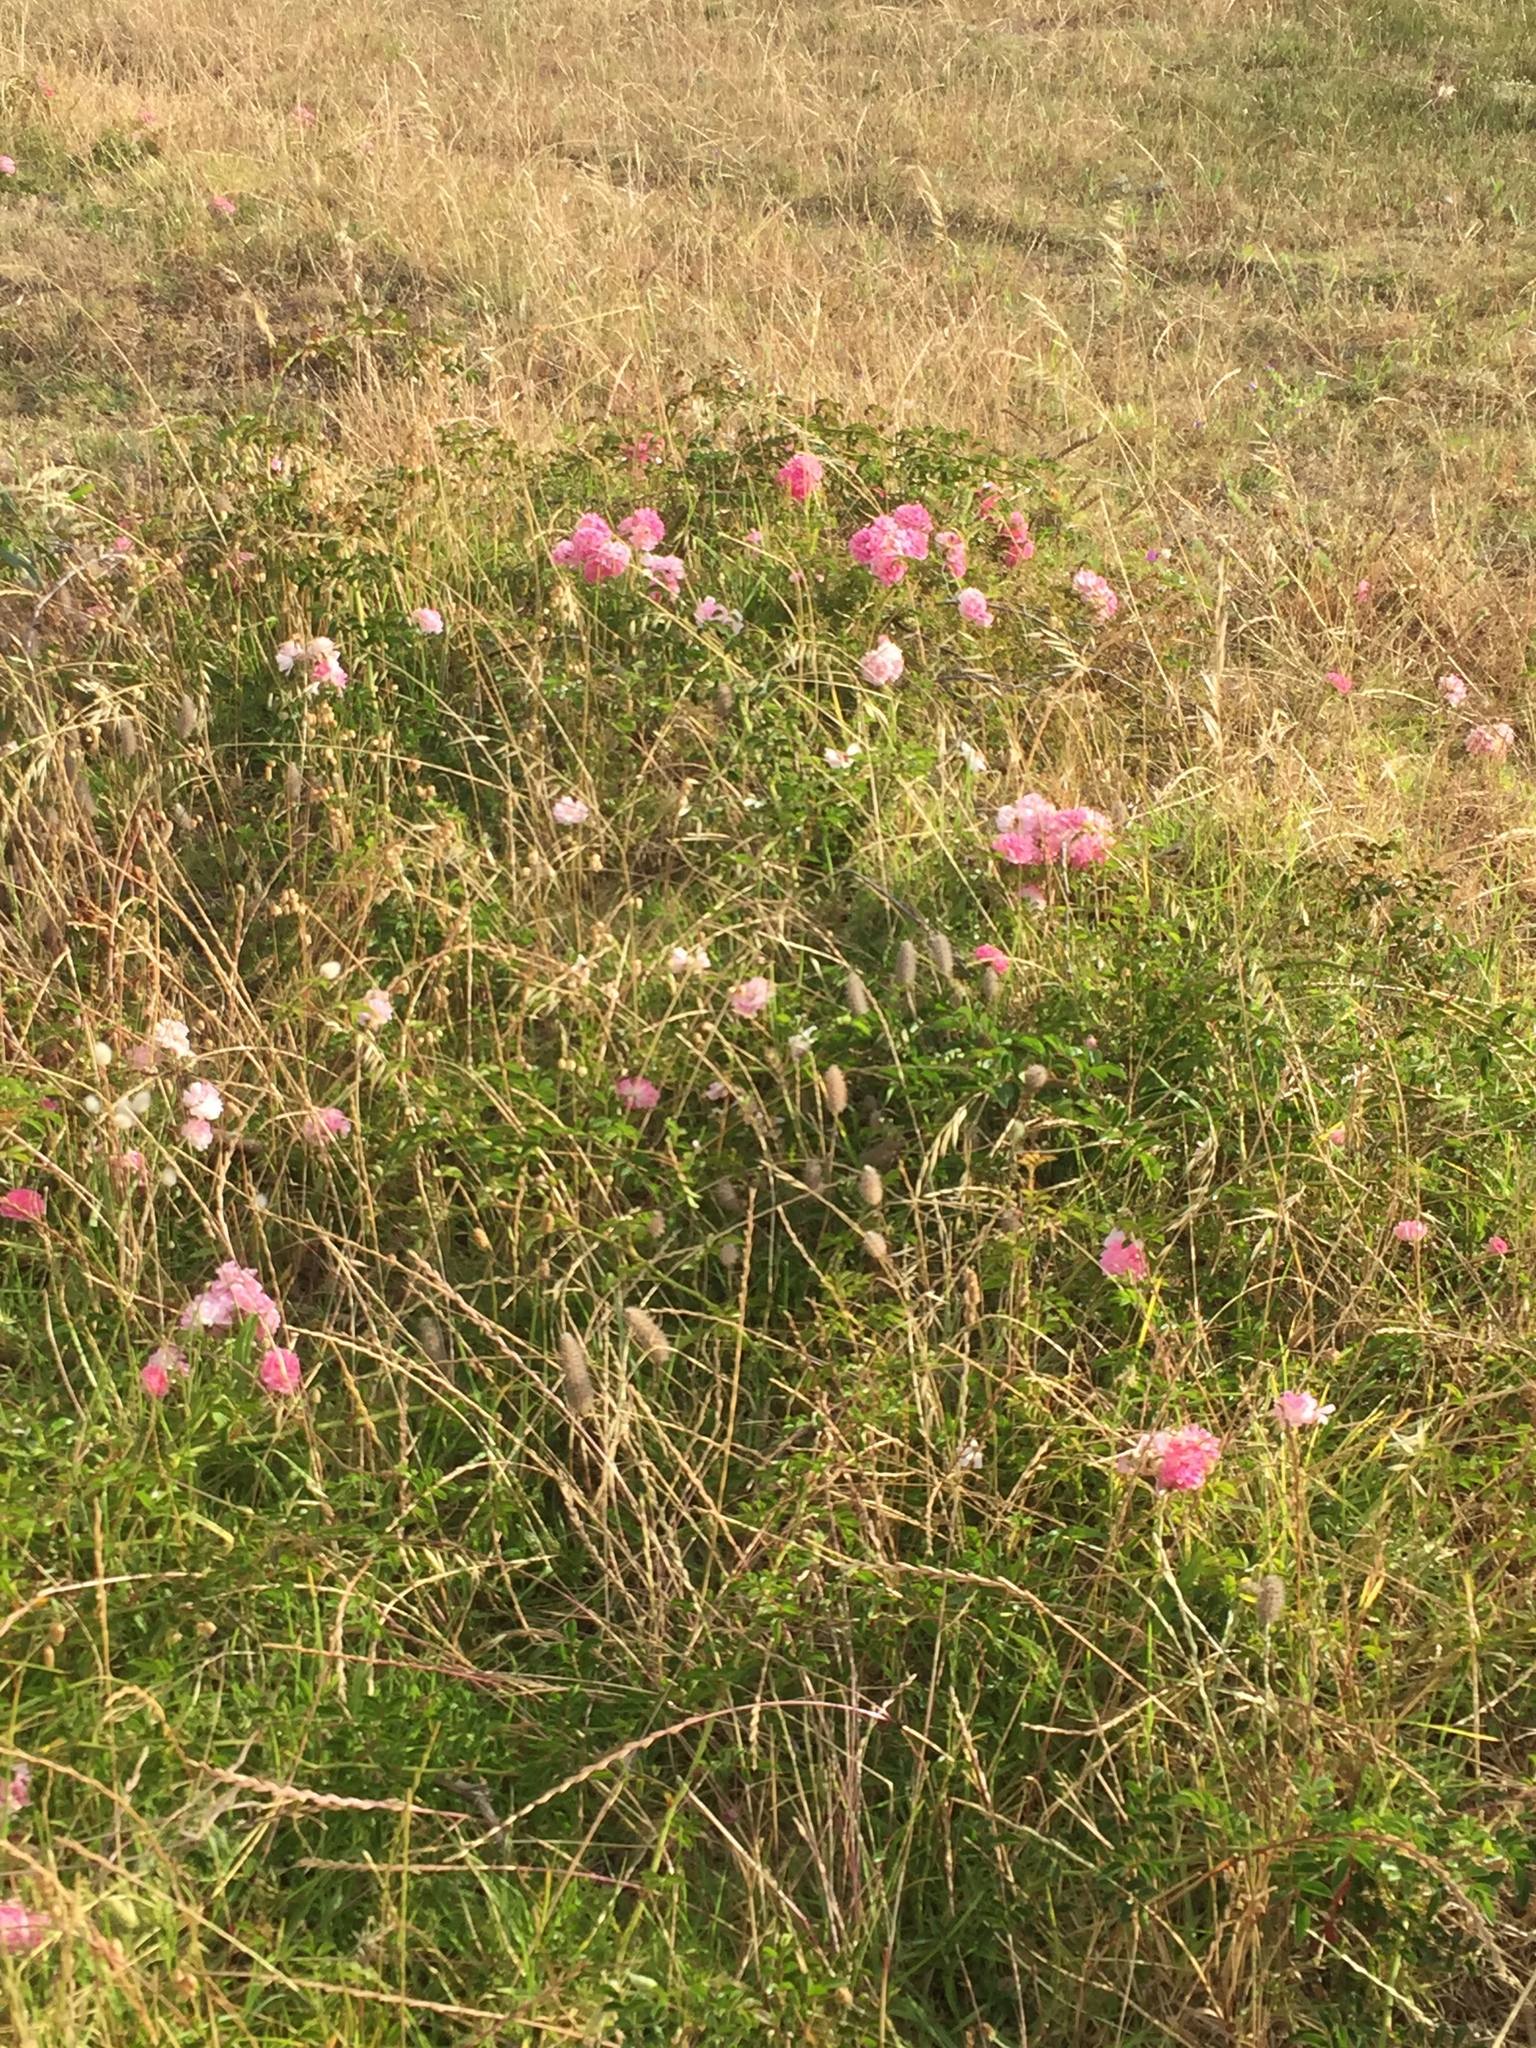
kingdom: Plantae
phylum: Tracheophyta
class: Magnoliopsida
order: Rosales
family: Rosaceae
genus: Rosa
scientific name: Rosa multiflora
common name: Multiflora rose
